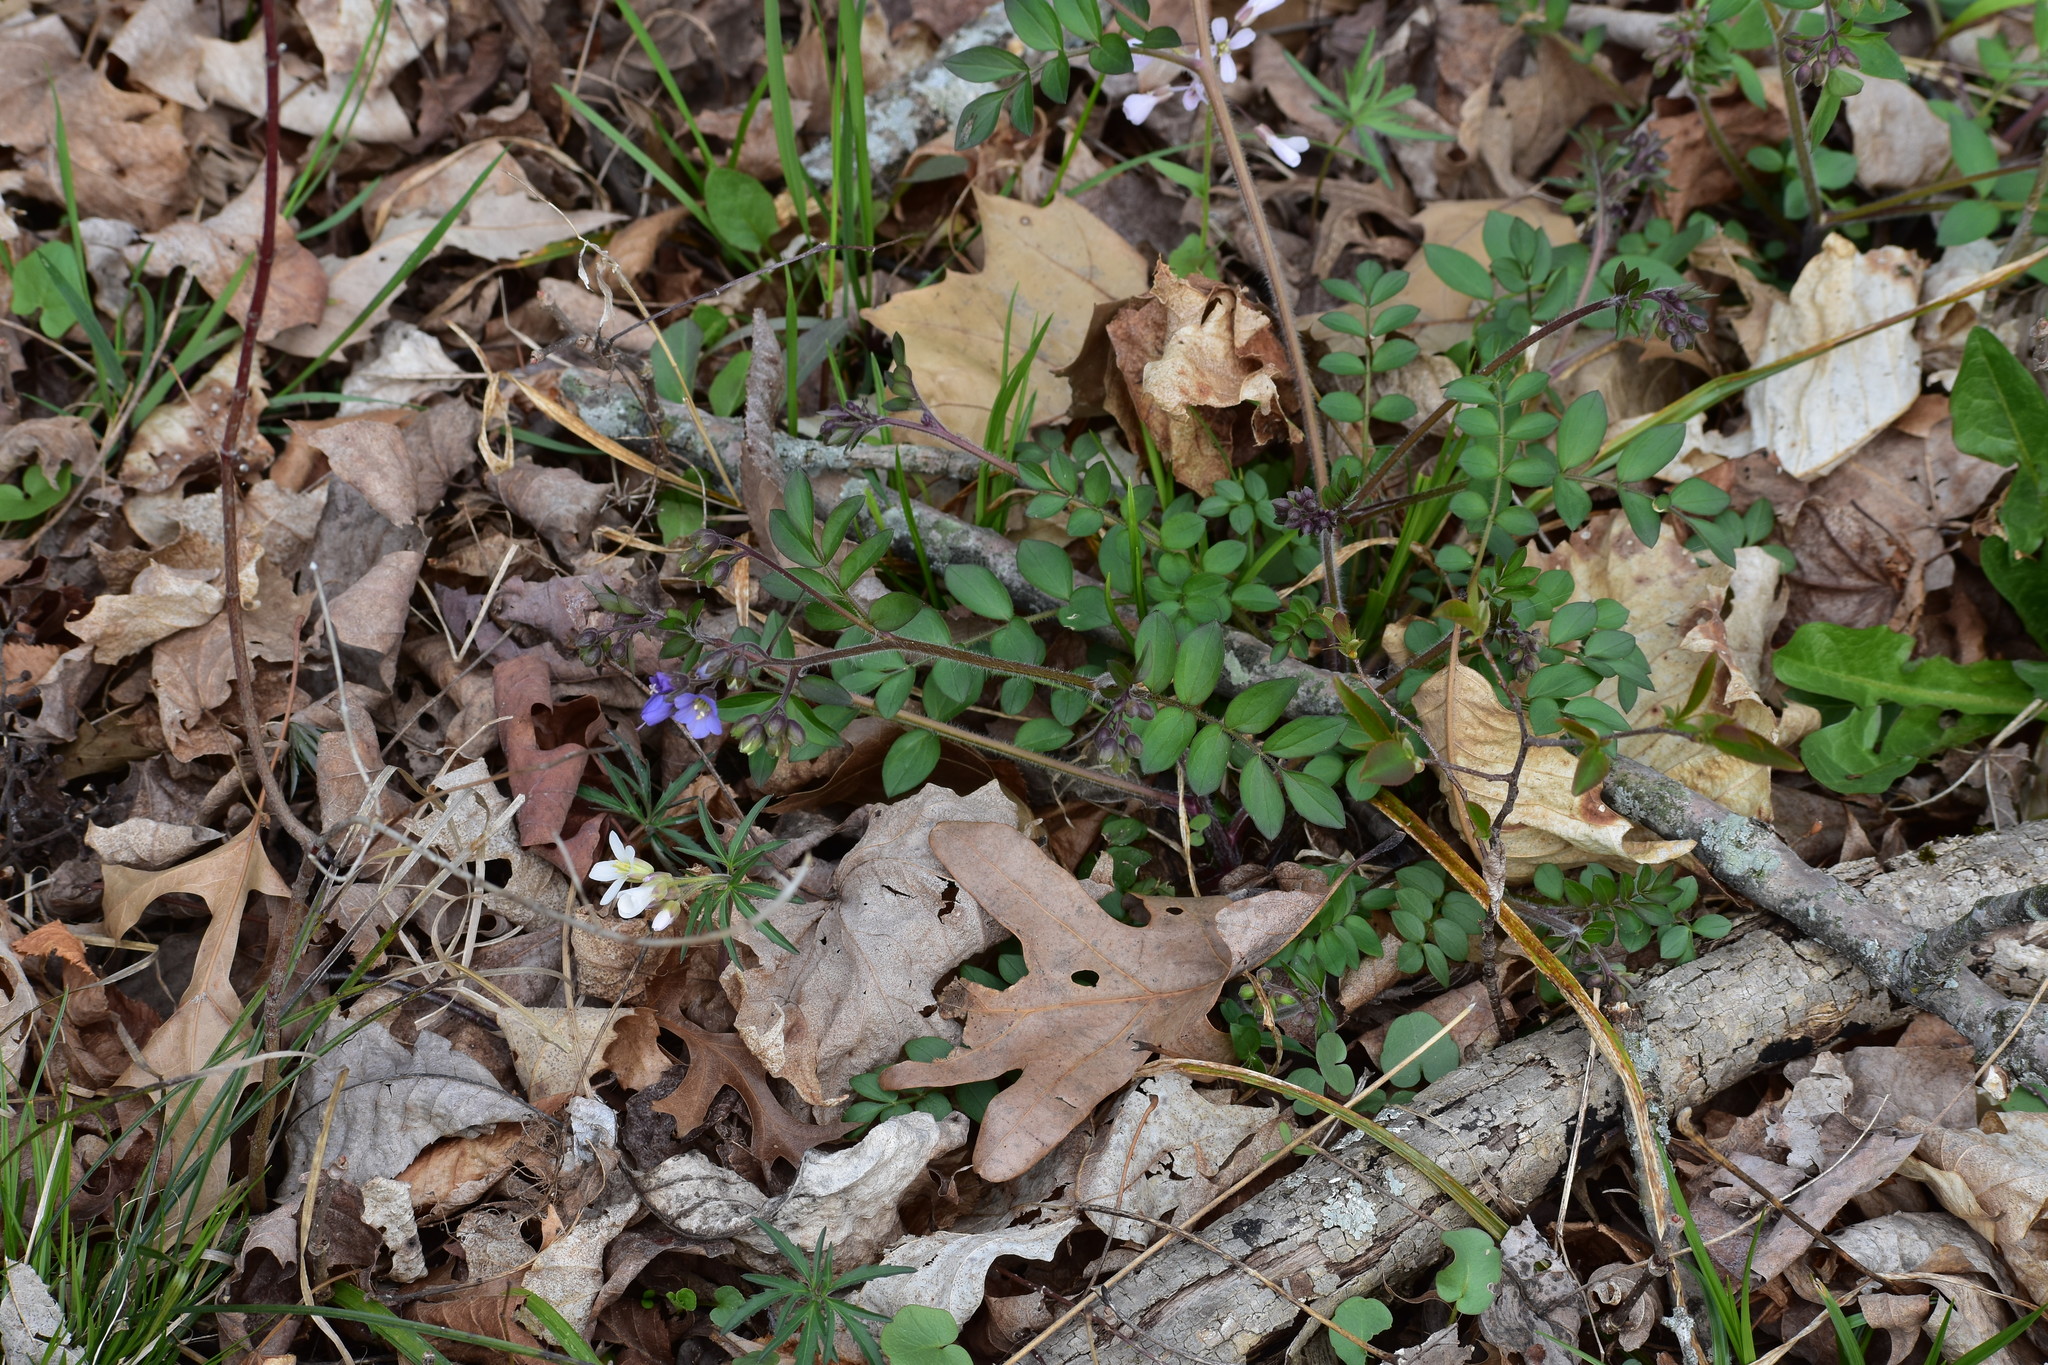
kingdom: Plantae
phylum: Tracheophyta
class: Magnoliopsida
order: Ericales
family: Polemoniaceae
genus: Polemonium
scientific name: Polemonium reptans
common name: Creeping jacob's-ladder
